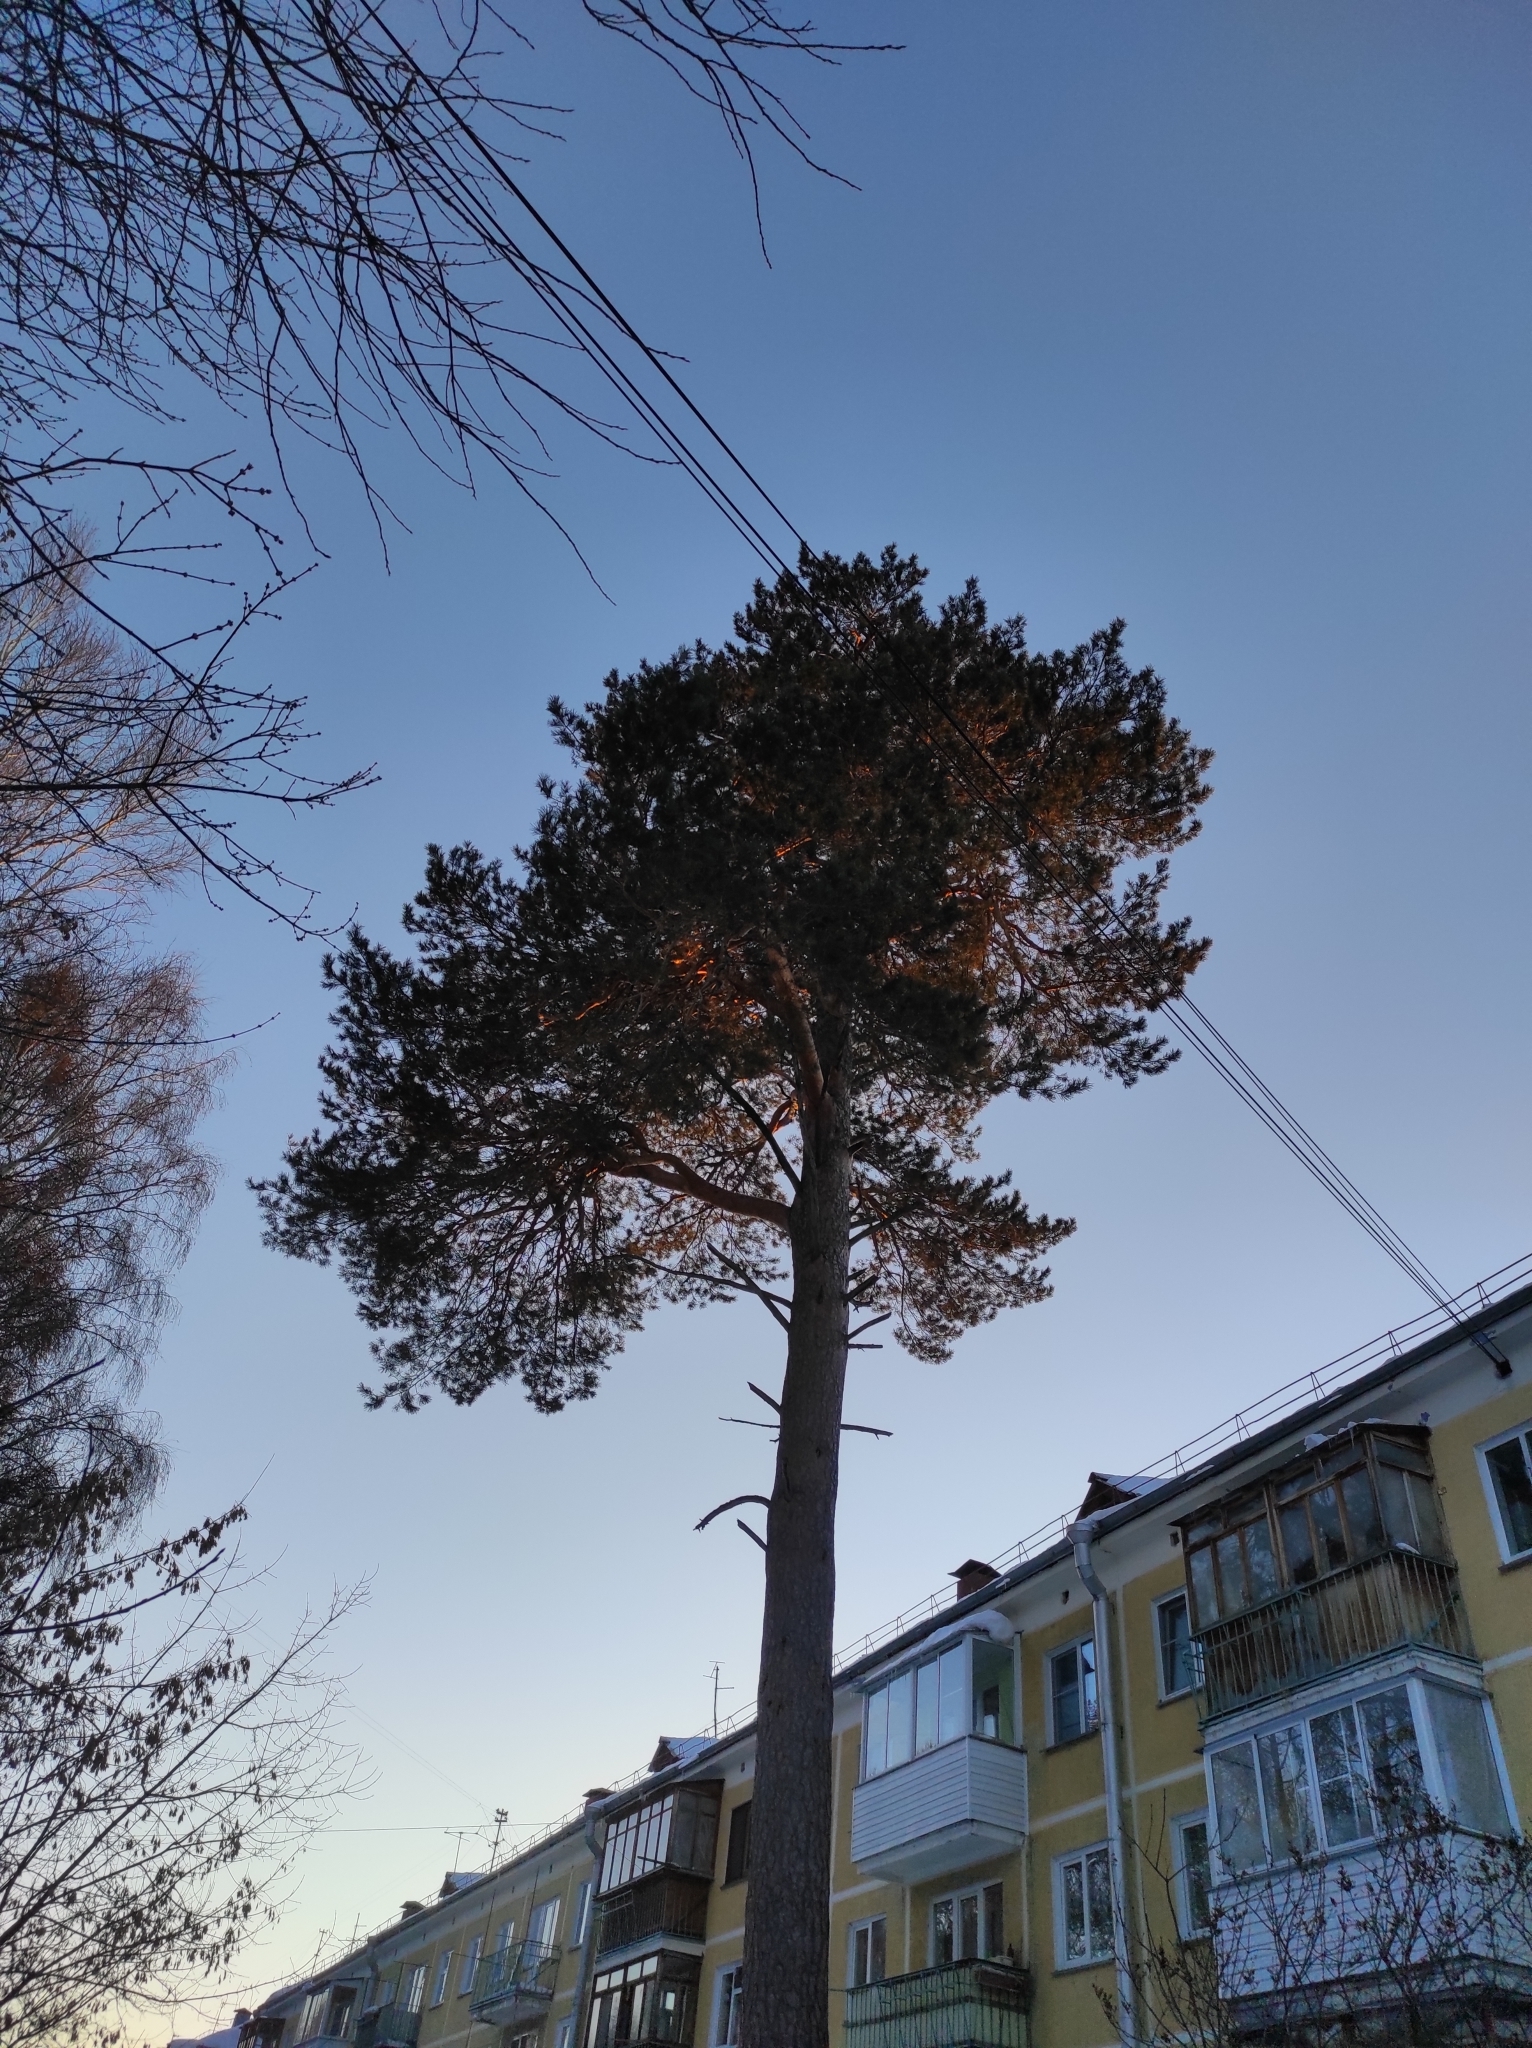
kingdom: Plantae
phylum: Tracheophyta
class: Pinopsida
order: Pinales
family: Pinaceae
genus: Pinus
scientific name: Pinus sylvestris
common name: Scots pine
